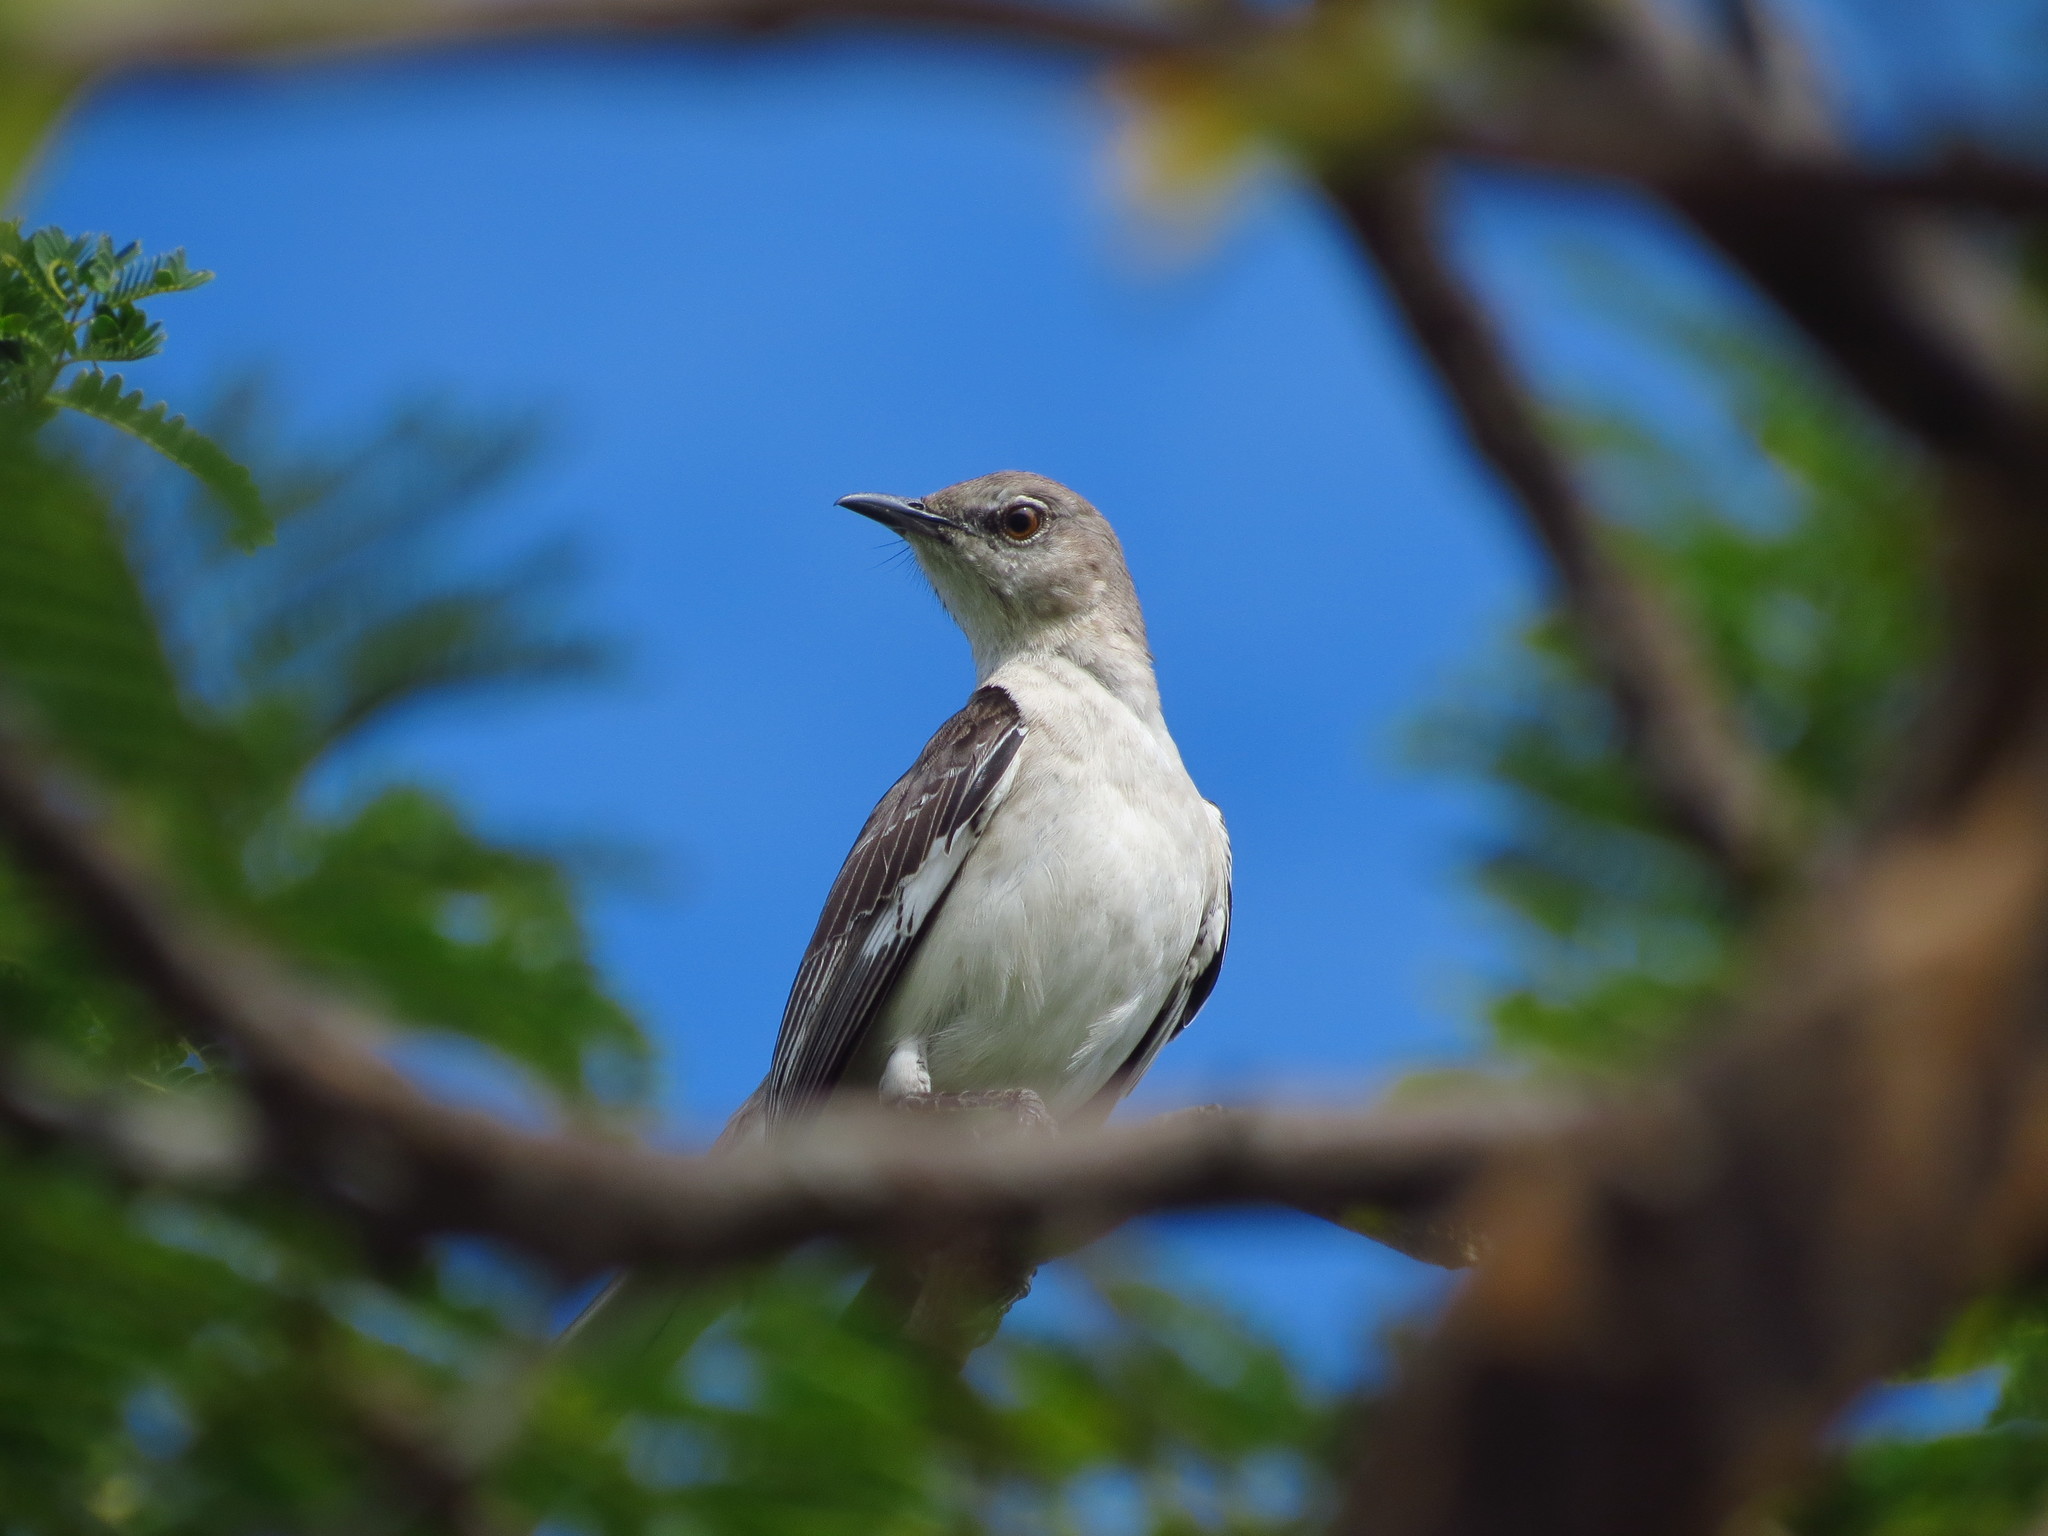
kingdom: Animalia
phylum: Chordata
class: Aves
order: Passeriformes
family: Mimidae
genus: Mimus
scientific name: Mimus polyglottos
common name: Northern mockingbird
